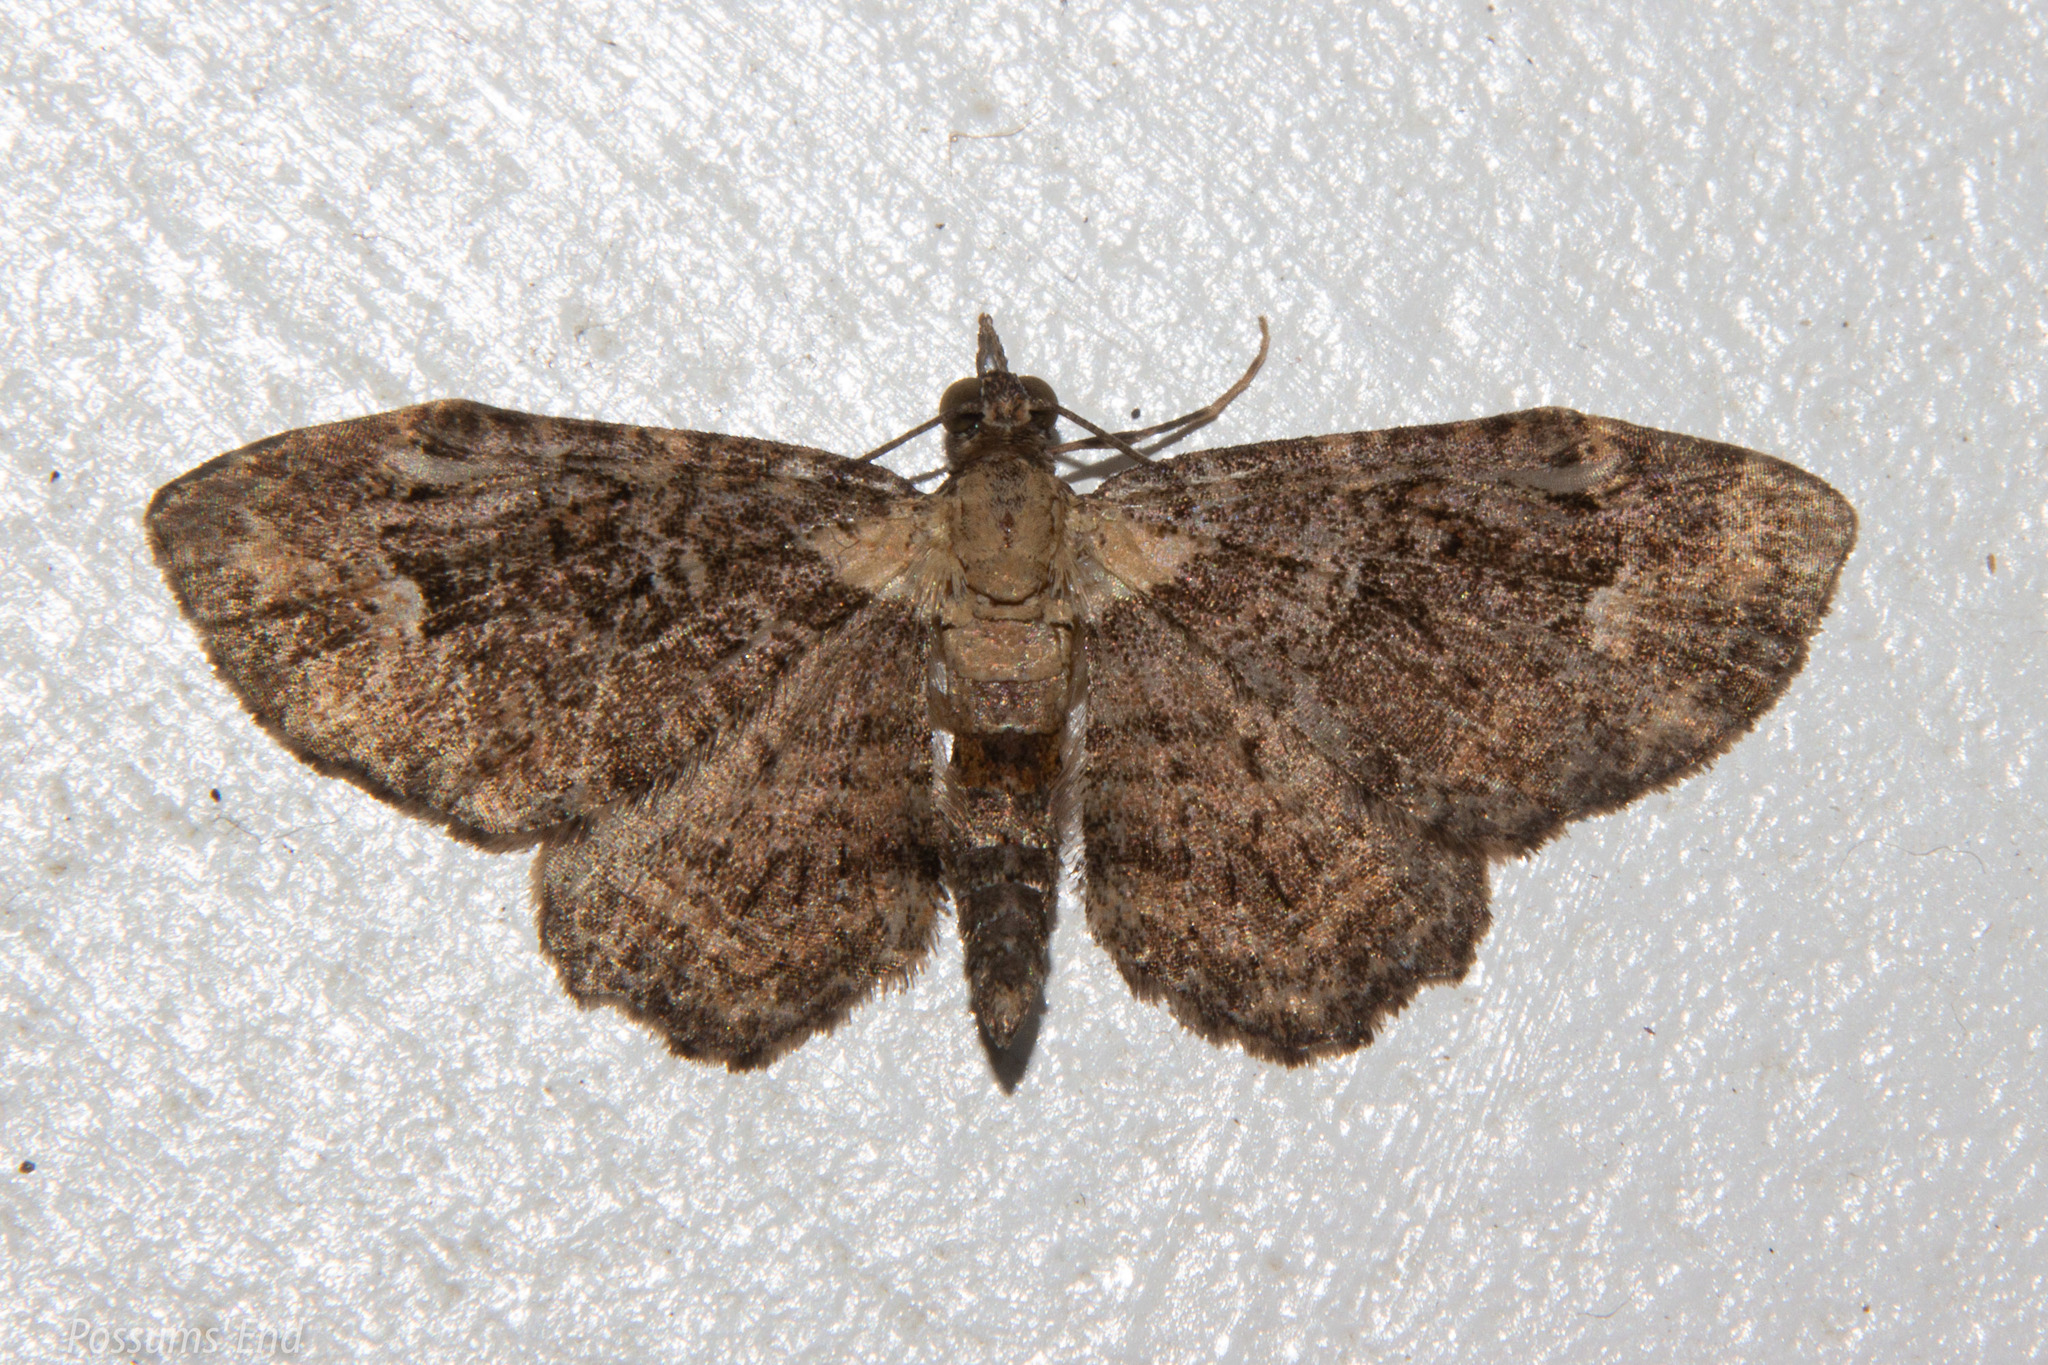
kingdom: Animalia
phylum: Arthropoda
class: Insecta
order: Lepidoptera
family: Geometridae
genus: Pasiphilodes
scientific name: Pasiphilodes testulata
